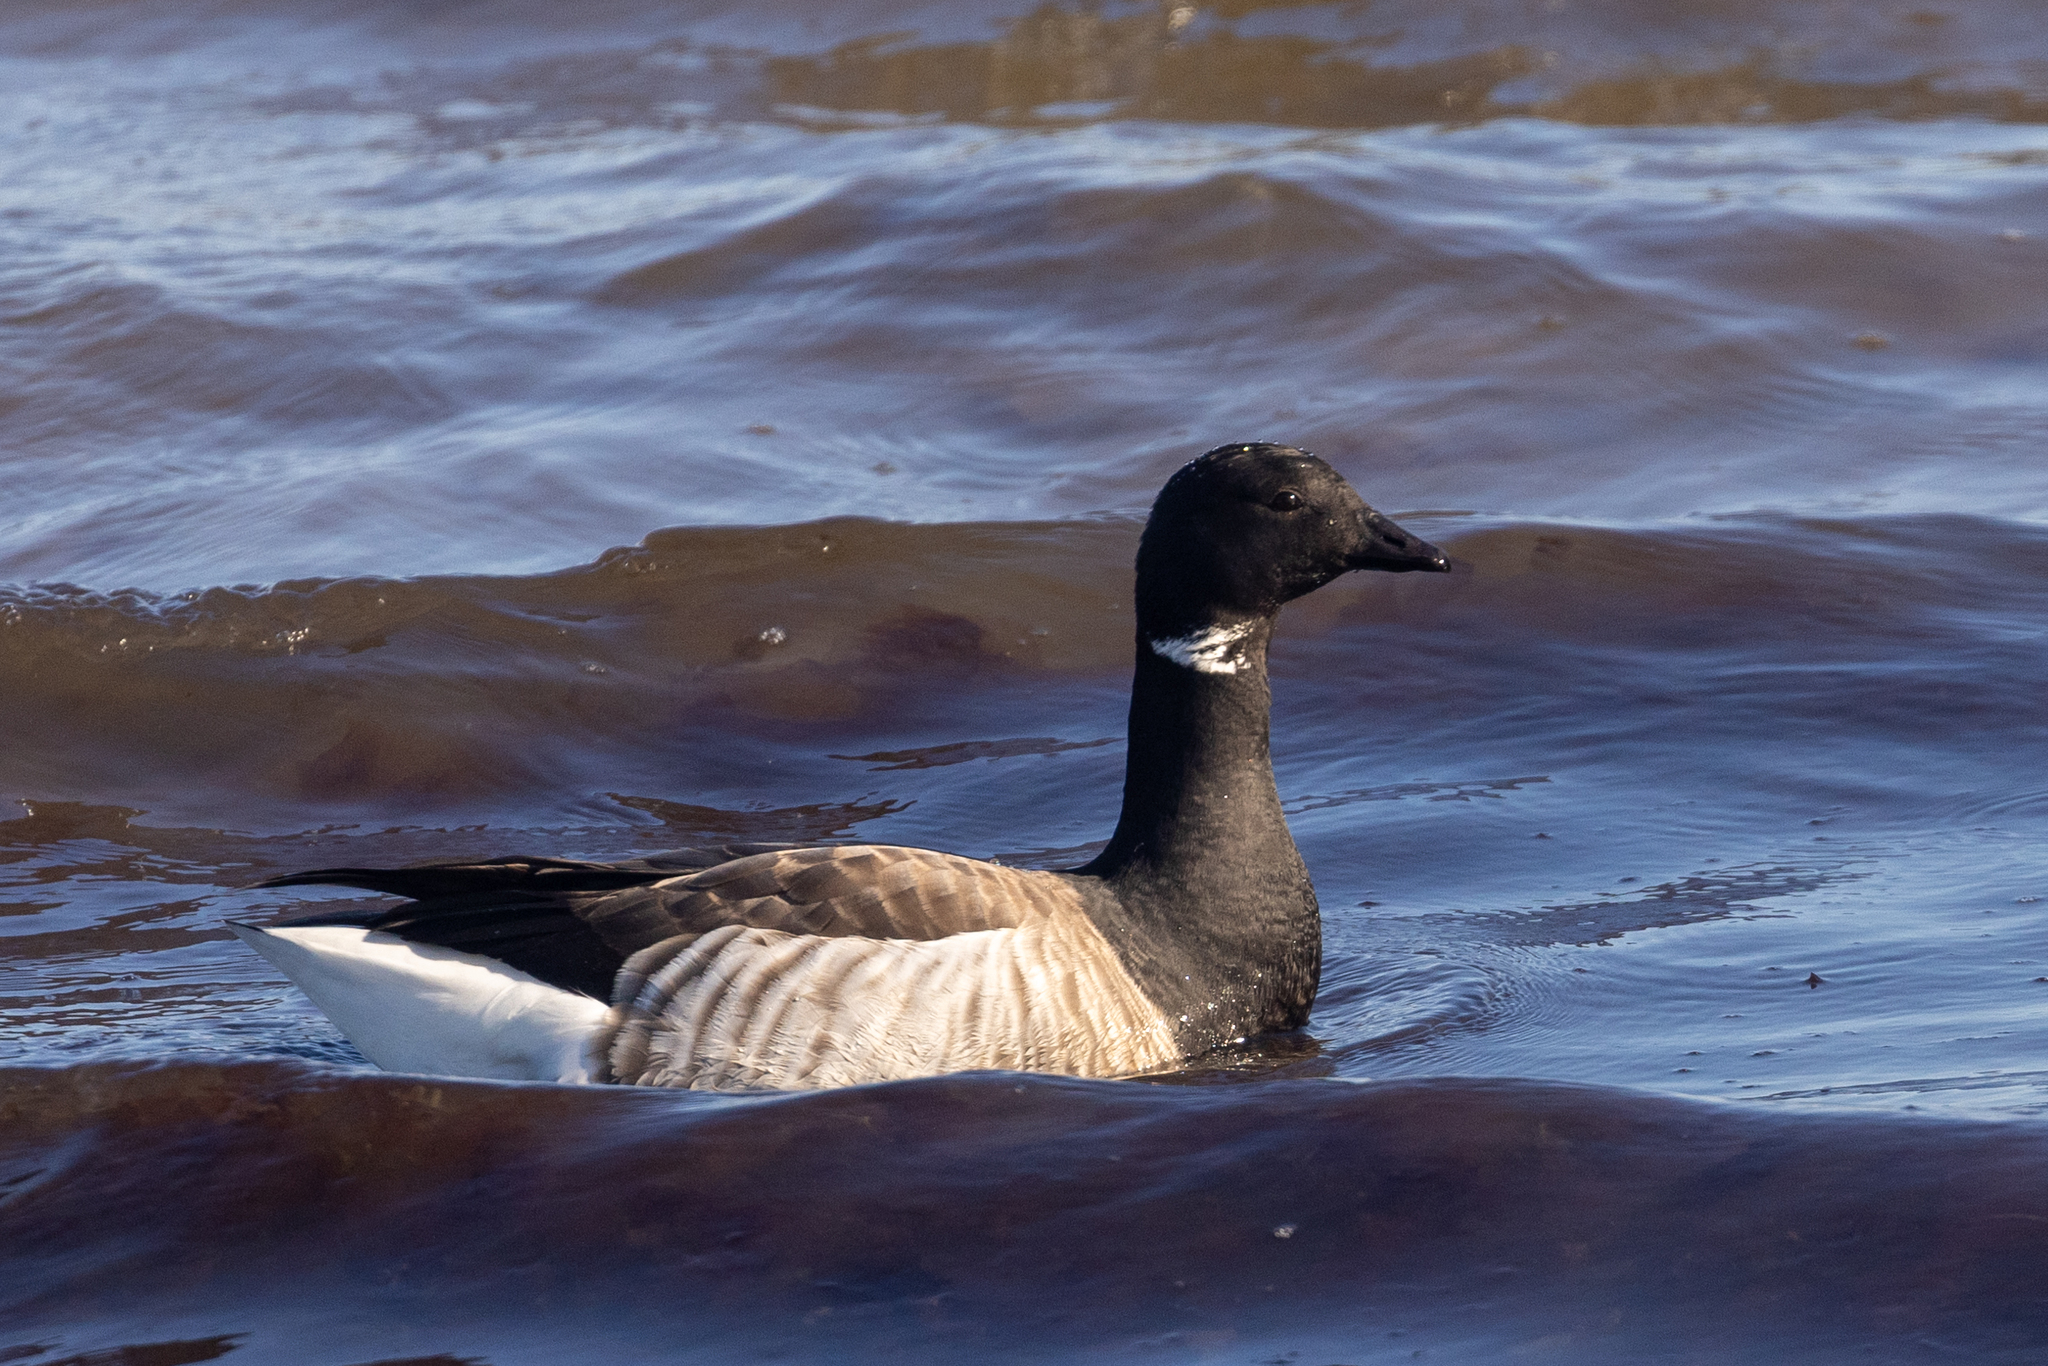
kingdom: Animalia
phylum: Chordata
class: Aves
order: Anseriformes
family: Anatidae
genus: Branta
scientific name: Branta bernicla
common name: Brant goose
